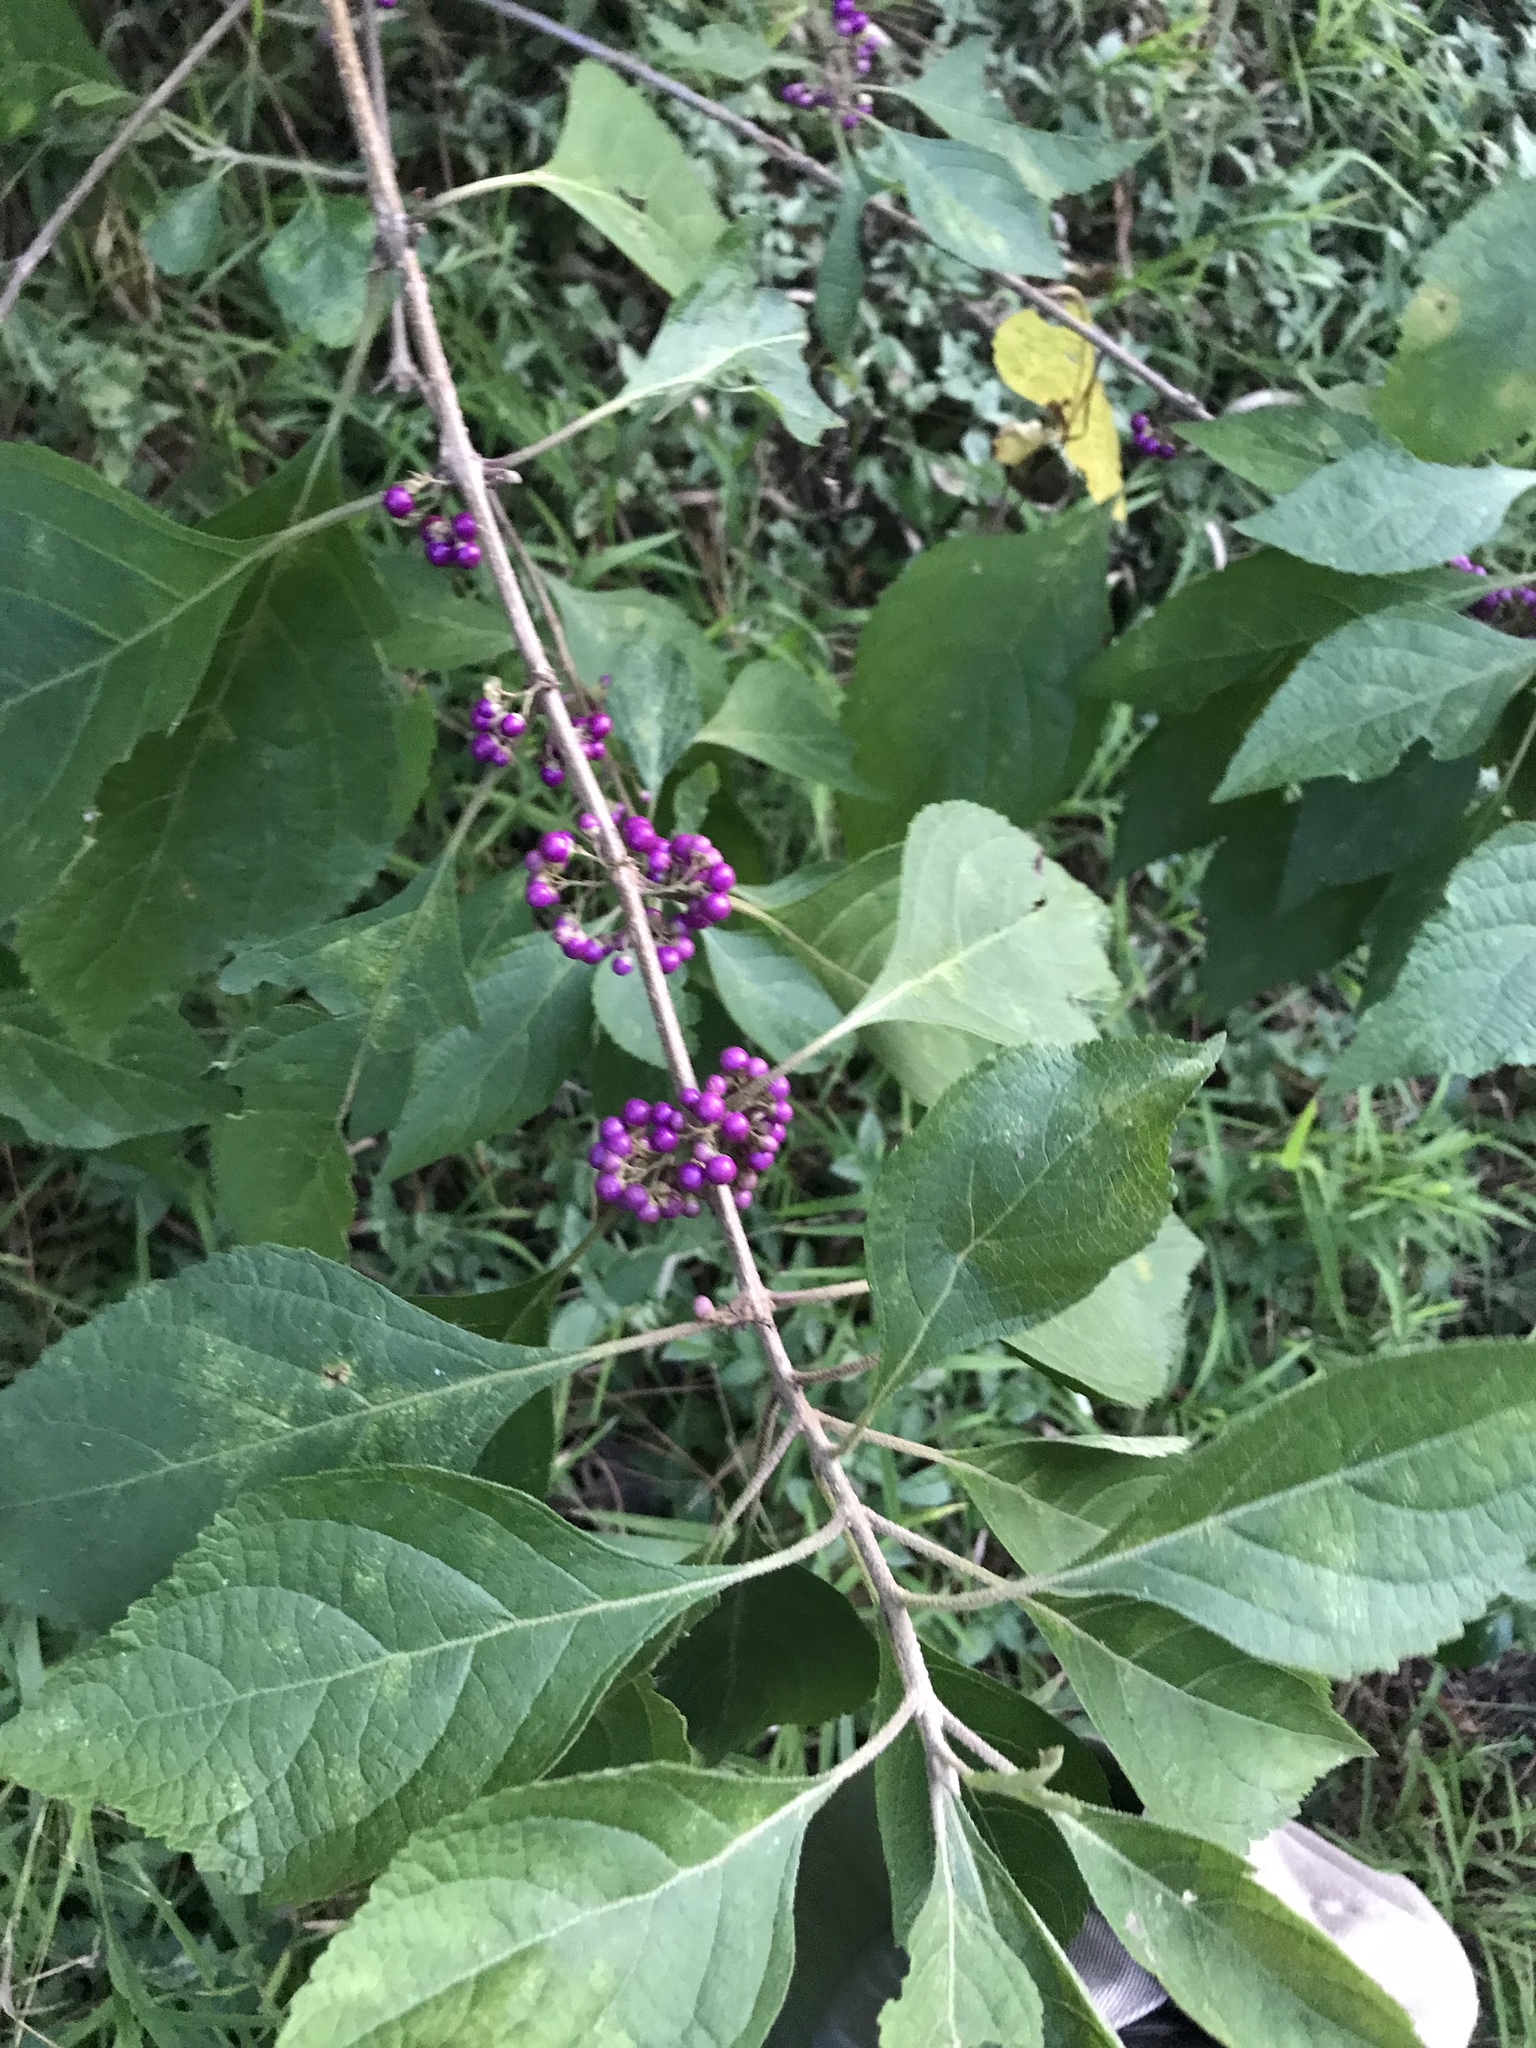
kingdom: Plantae
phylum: Tracheophyta
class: Magnoliopsida
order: Lamiales
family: Lamiaceae
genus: Callicarpa
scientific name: Callicarpa americana
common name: American beautyberry
